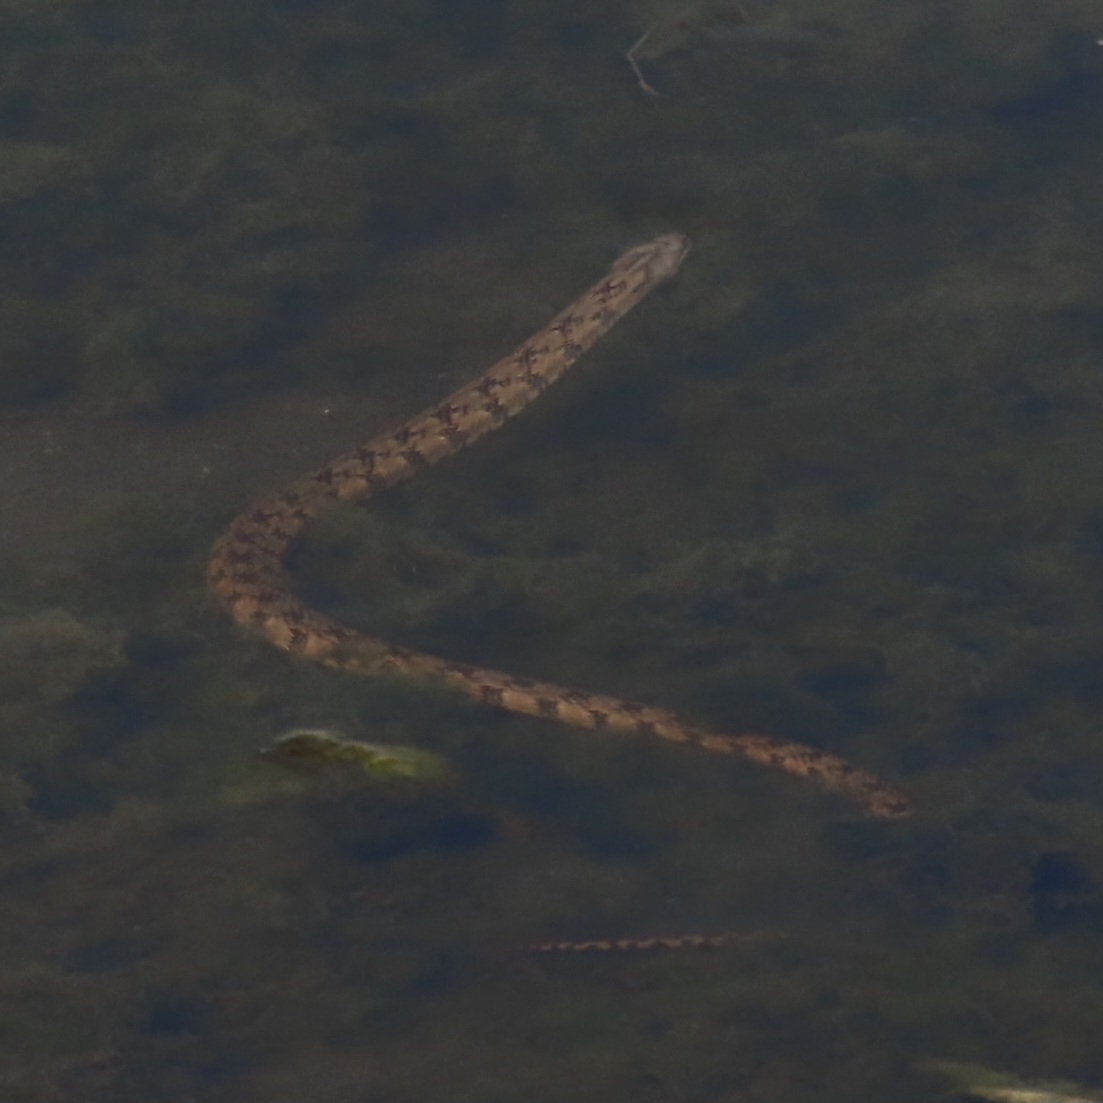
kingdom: Animalia
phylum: Chordata
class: Squamata
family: Colubridae
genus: Nerodia
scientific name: Nerodia rhombifer
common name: Diamondback water snake
